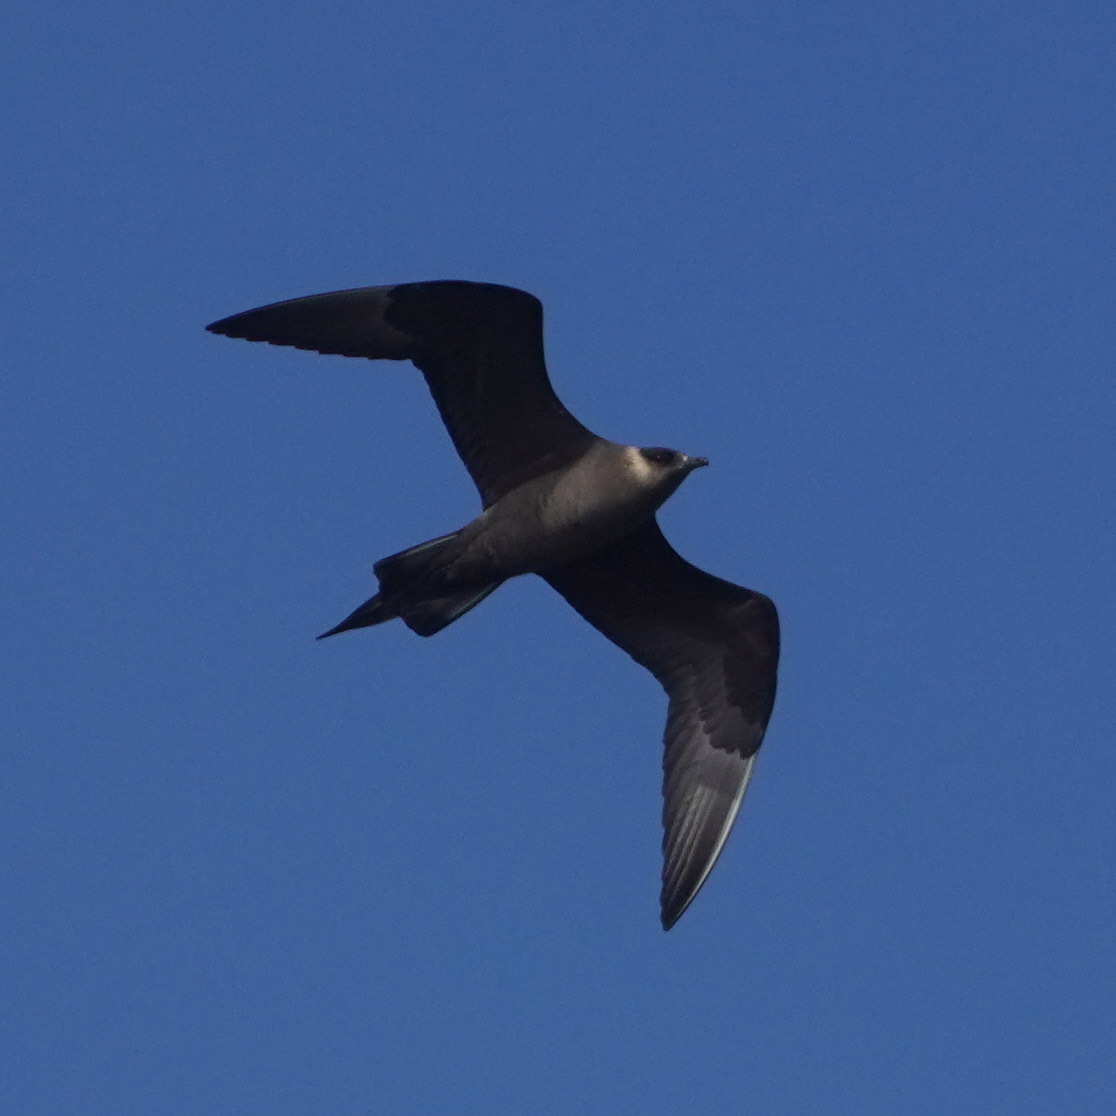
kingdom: Animalia
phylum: Chordata
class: Aves
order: Charadriiformes
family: Stercorariidae
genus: Stercorarius
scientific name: Stercorarius parasiticus
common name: Parasitic jaeger
